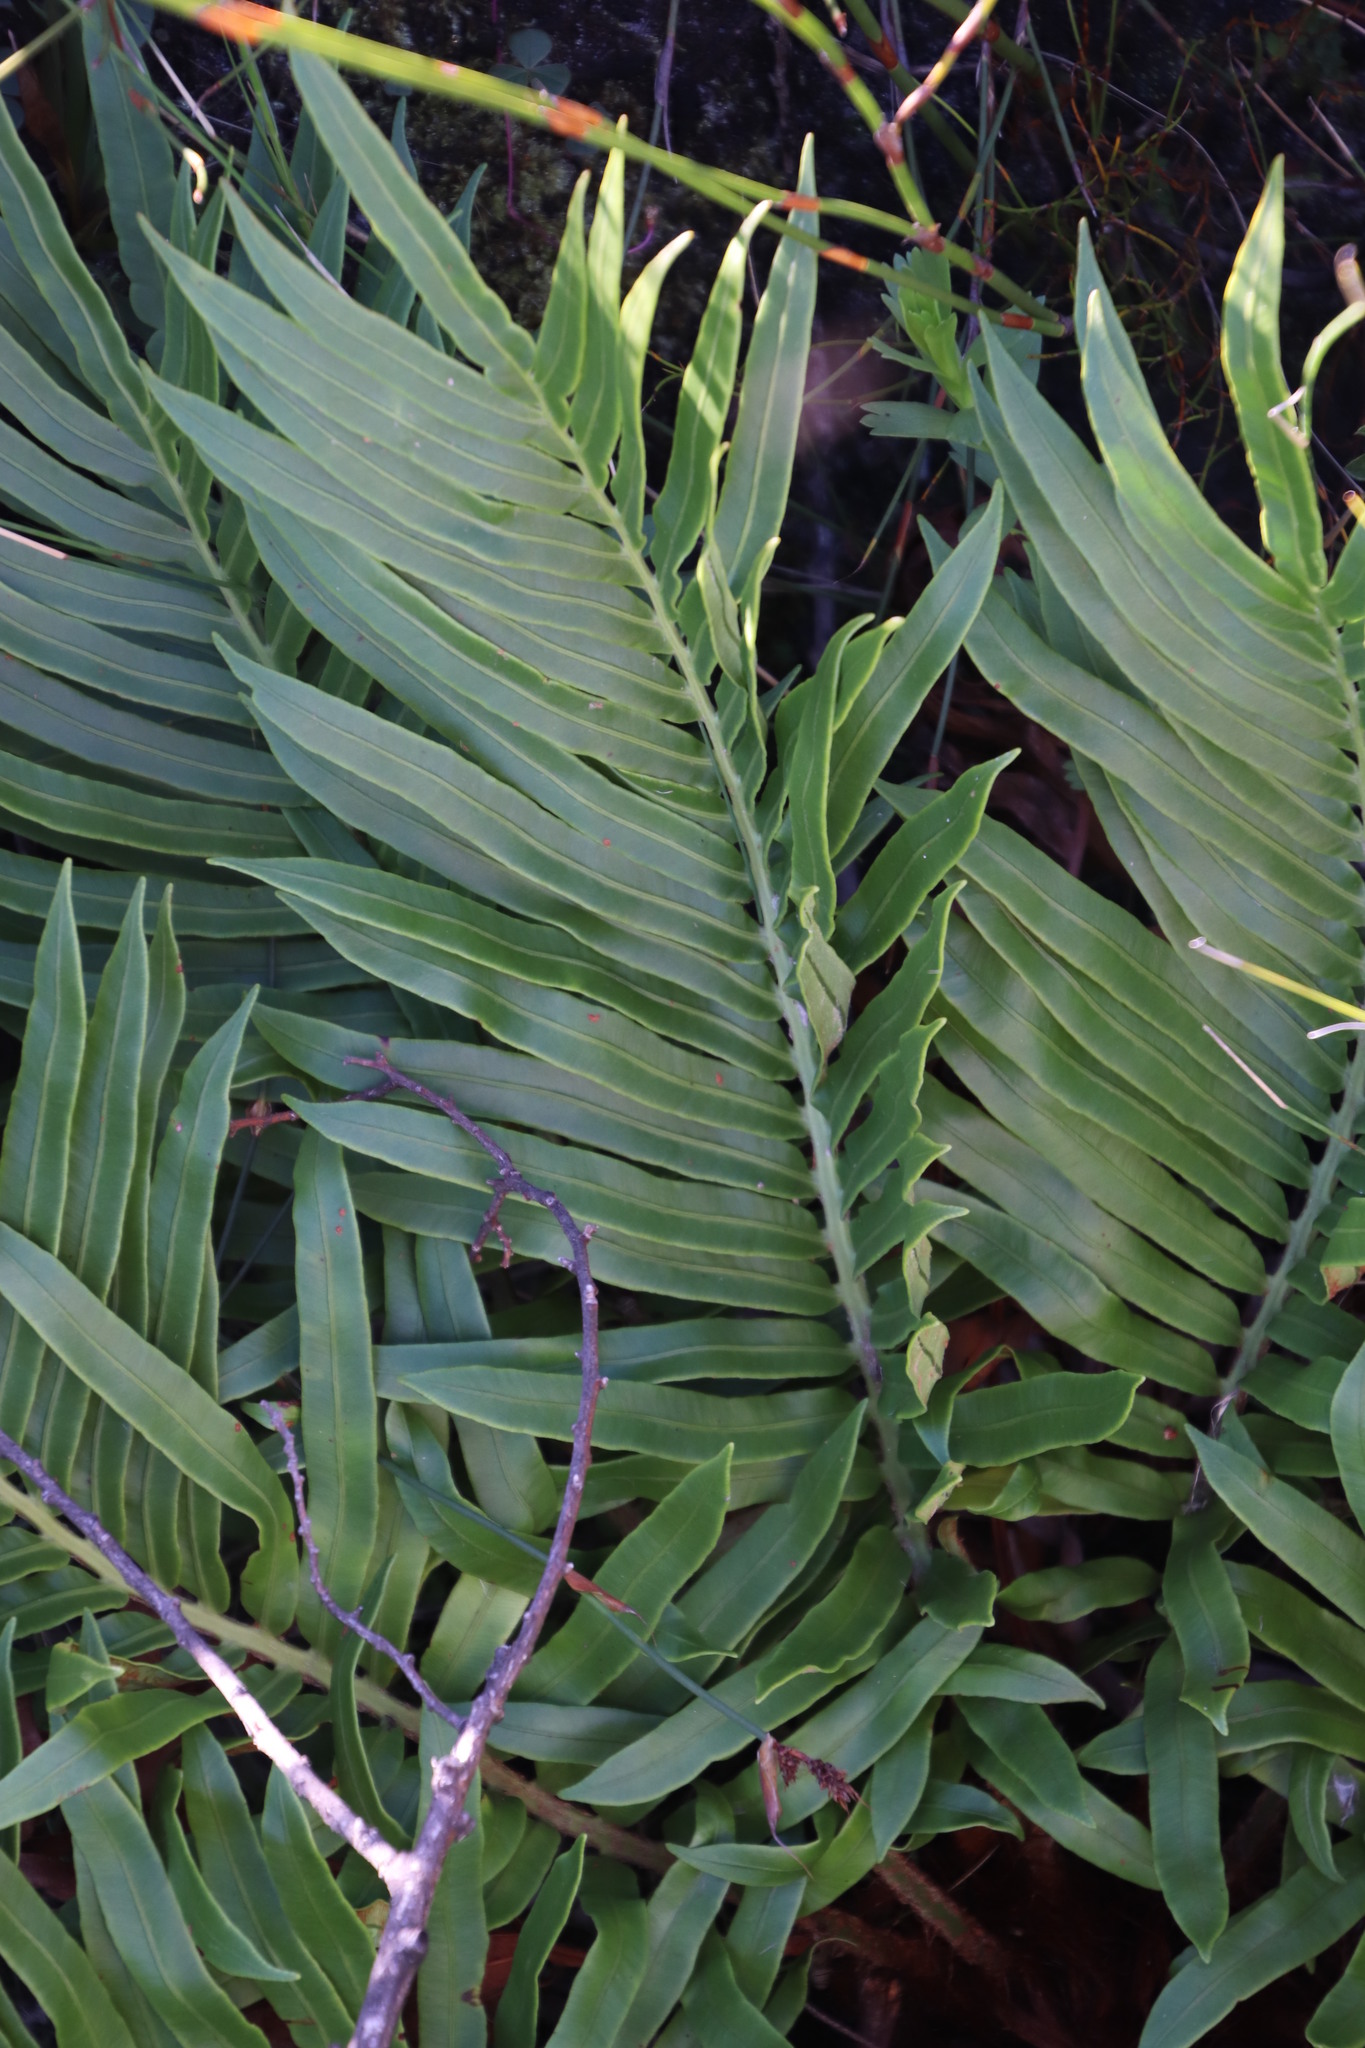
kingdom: Plantae
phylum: Tracheophyta
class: Polypodiopsida
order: Polypodiales
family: Blechnaceae
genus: Lomariocycas
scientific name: Lomariocycas tabularis
